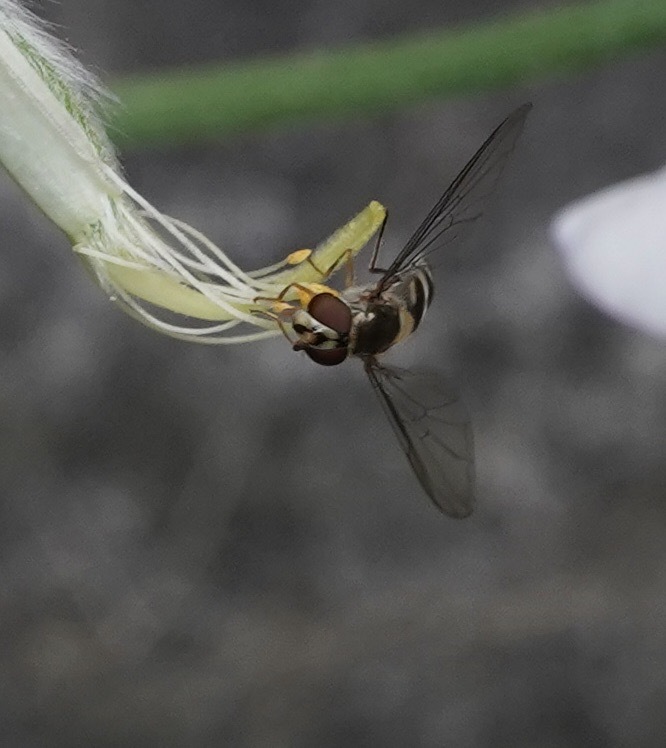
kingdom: Animalia
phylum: Arthropoda
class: Insecta
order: Diptera
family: Syrphidae
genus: Meliscaeva
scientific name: Meliscaeva auricollis
